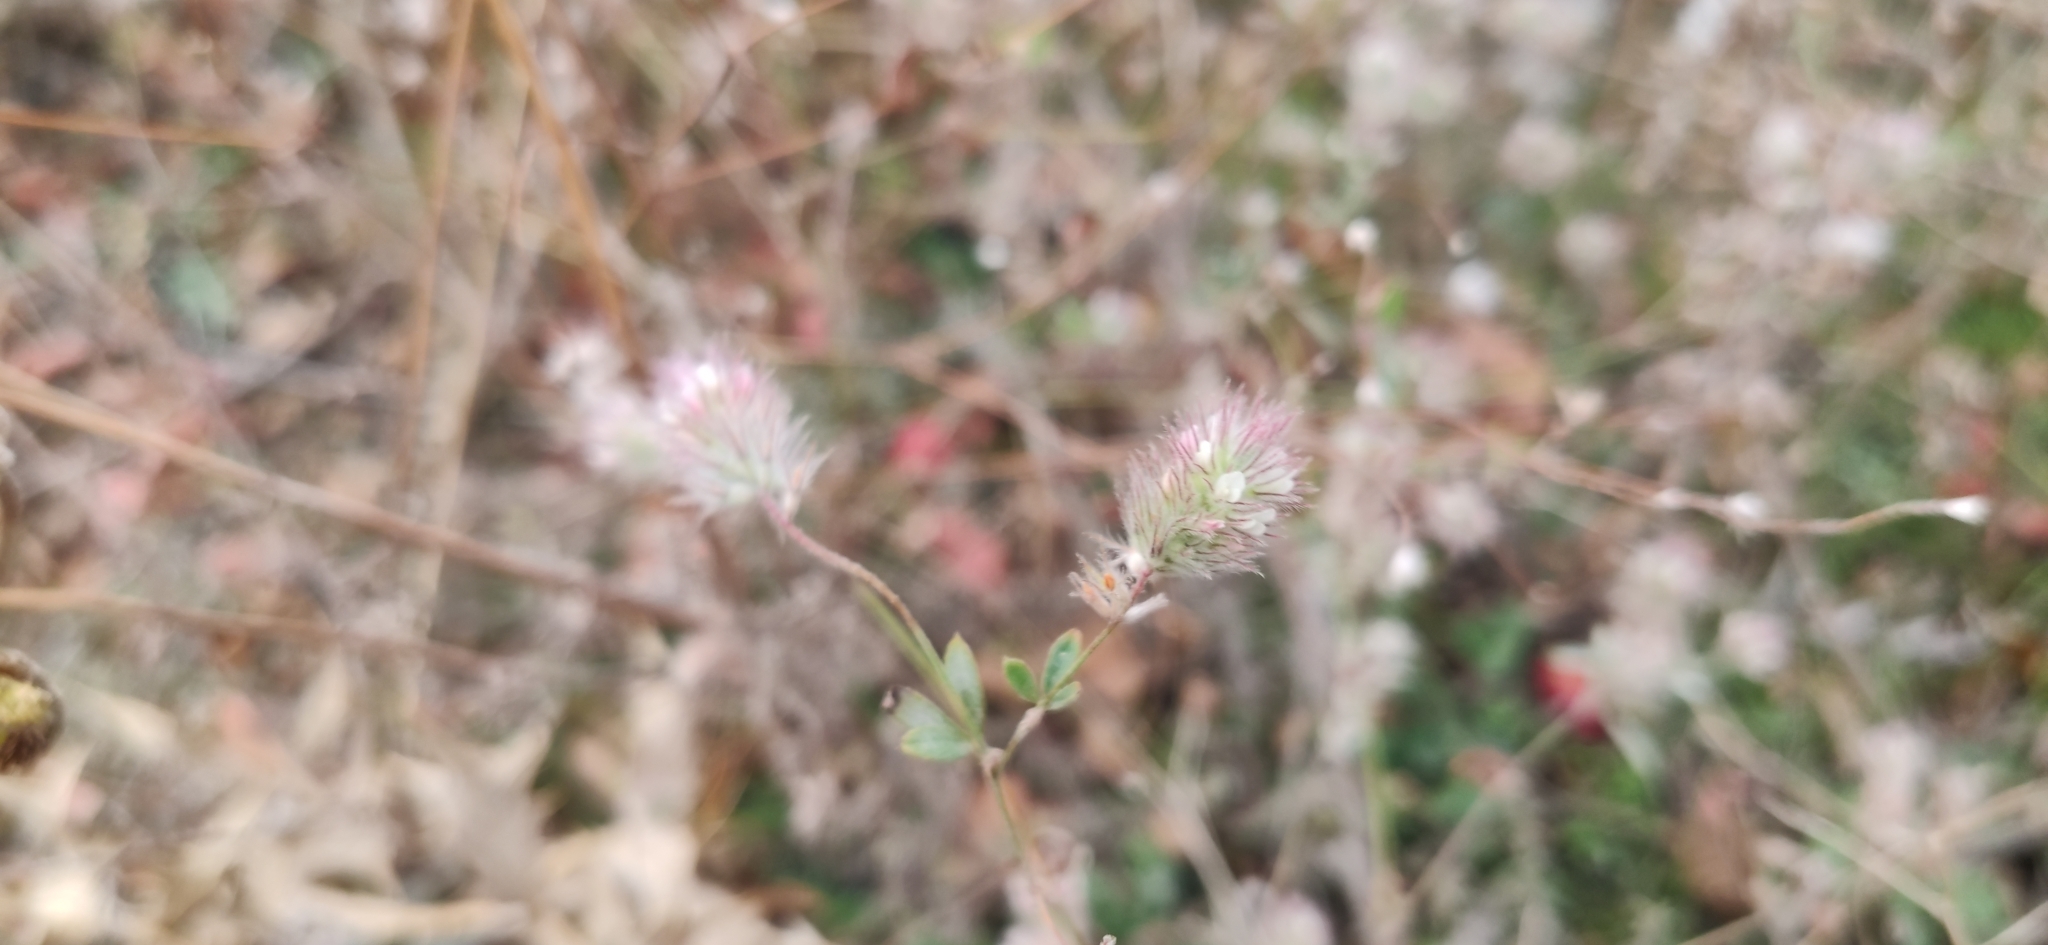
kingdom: Plantae
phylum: Tracheophyta
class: Magnoliopsida
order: Fabales
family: Fabaceae
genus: Trifolium
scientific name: Trifolium arvense
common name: Hare's-foot clover
